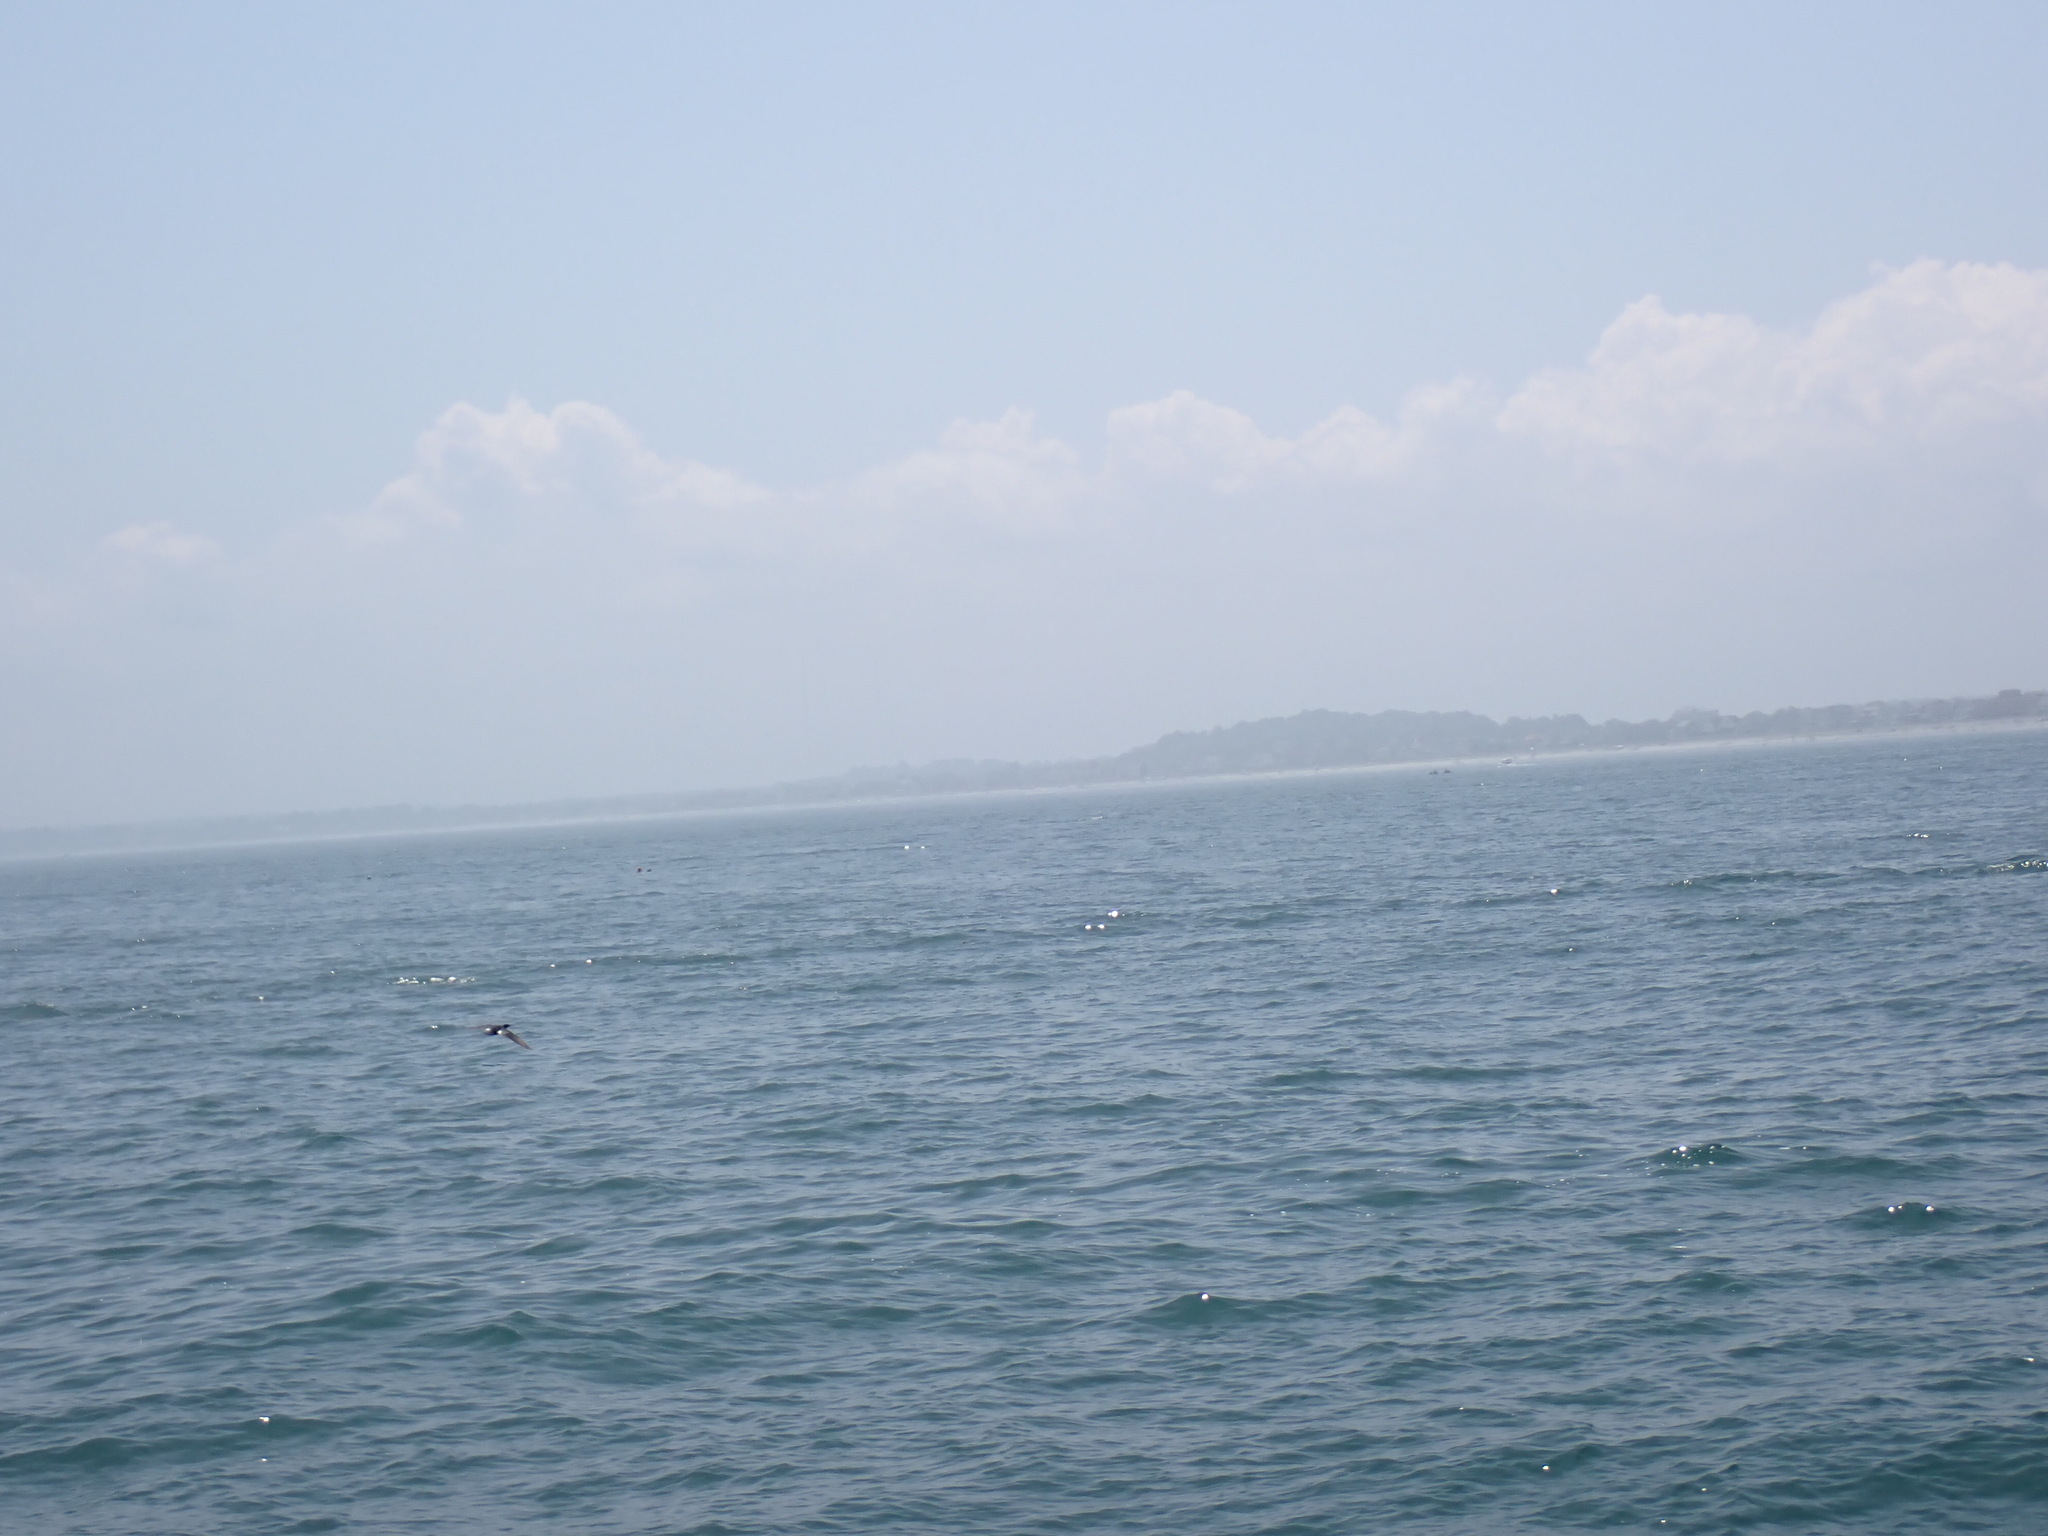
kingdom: Animalia
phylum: Chordata
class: Aves
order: Anseriformes
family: Anatidae
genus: Mergus
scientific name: Mergus serrator
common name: Red-breasted merganser
